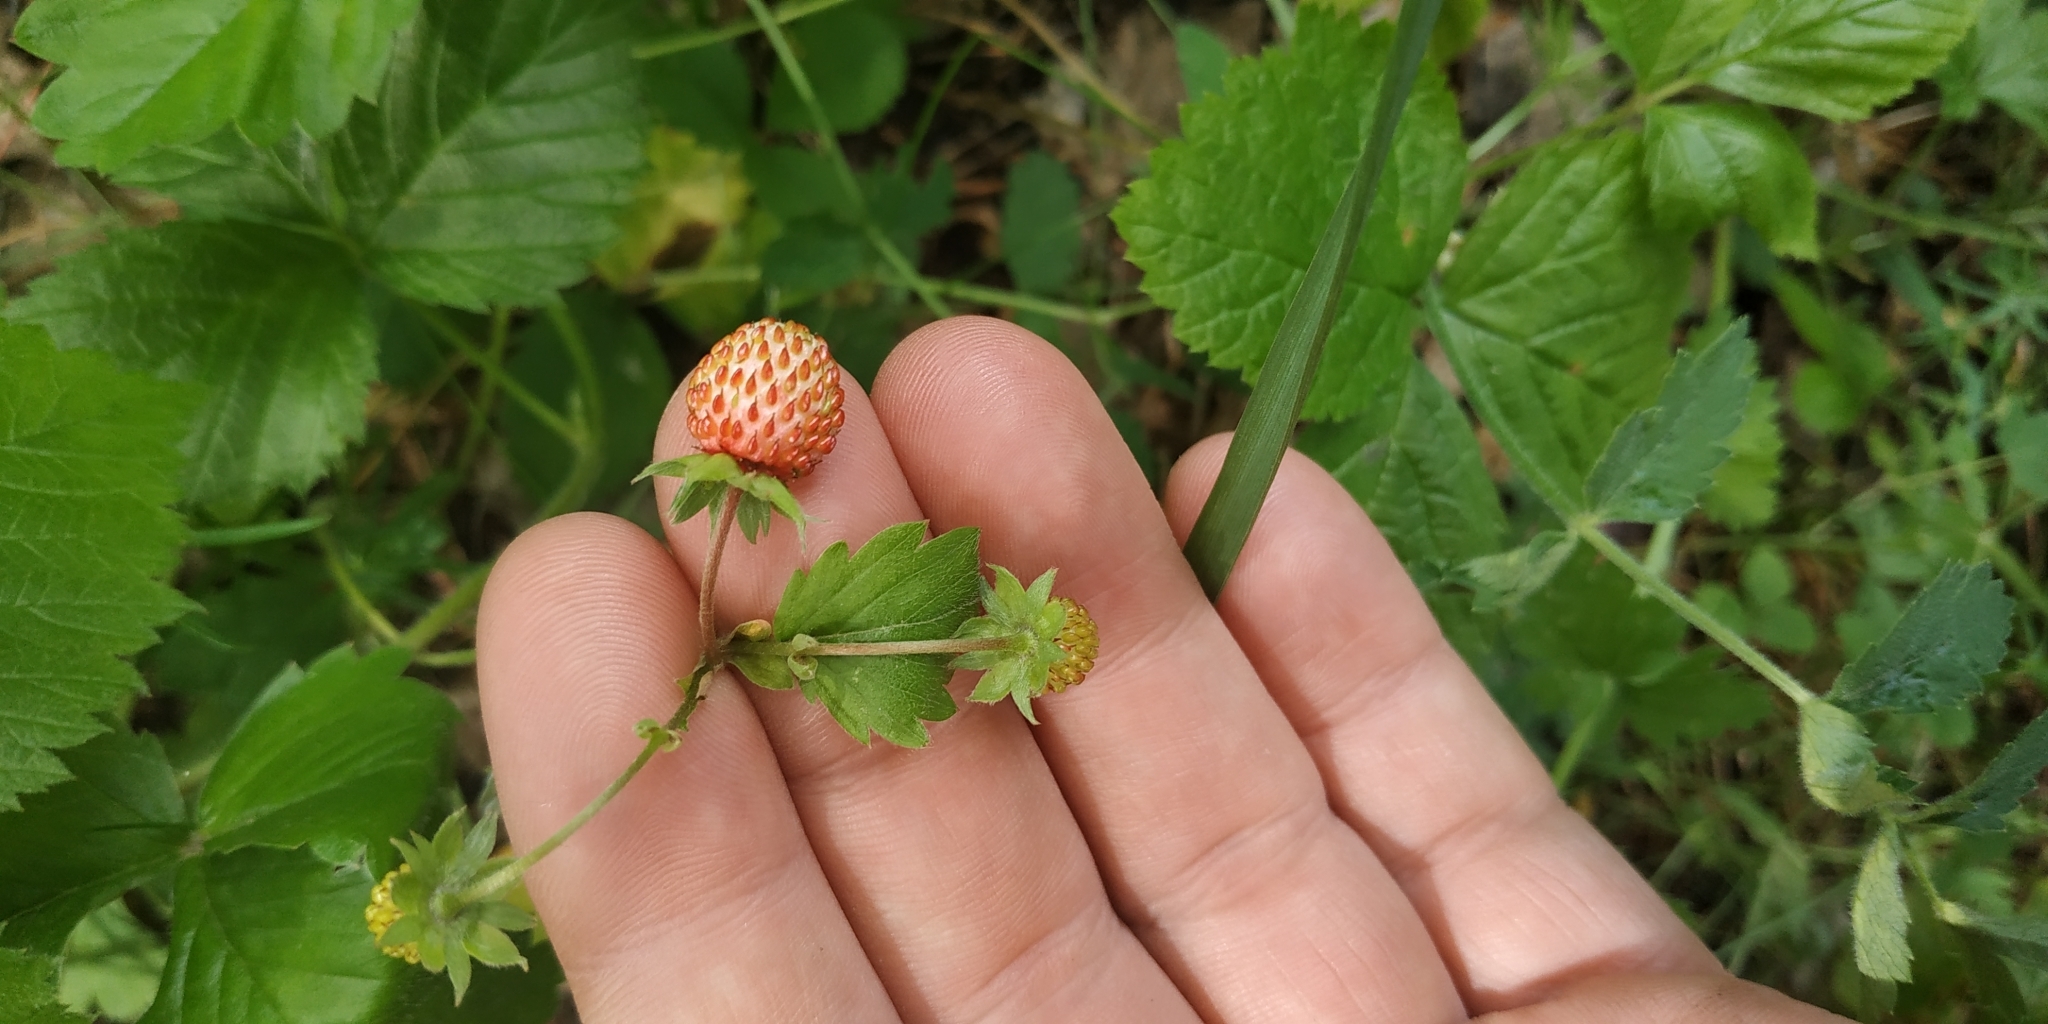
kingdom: Plantae
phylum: Tracheophyta
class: Magnoliopsida
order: Rosales
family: Rosaceae
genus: Fragaria
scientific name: Fragaria vesca
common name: Wild strawberry
